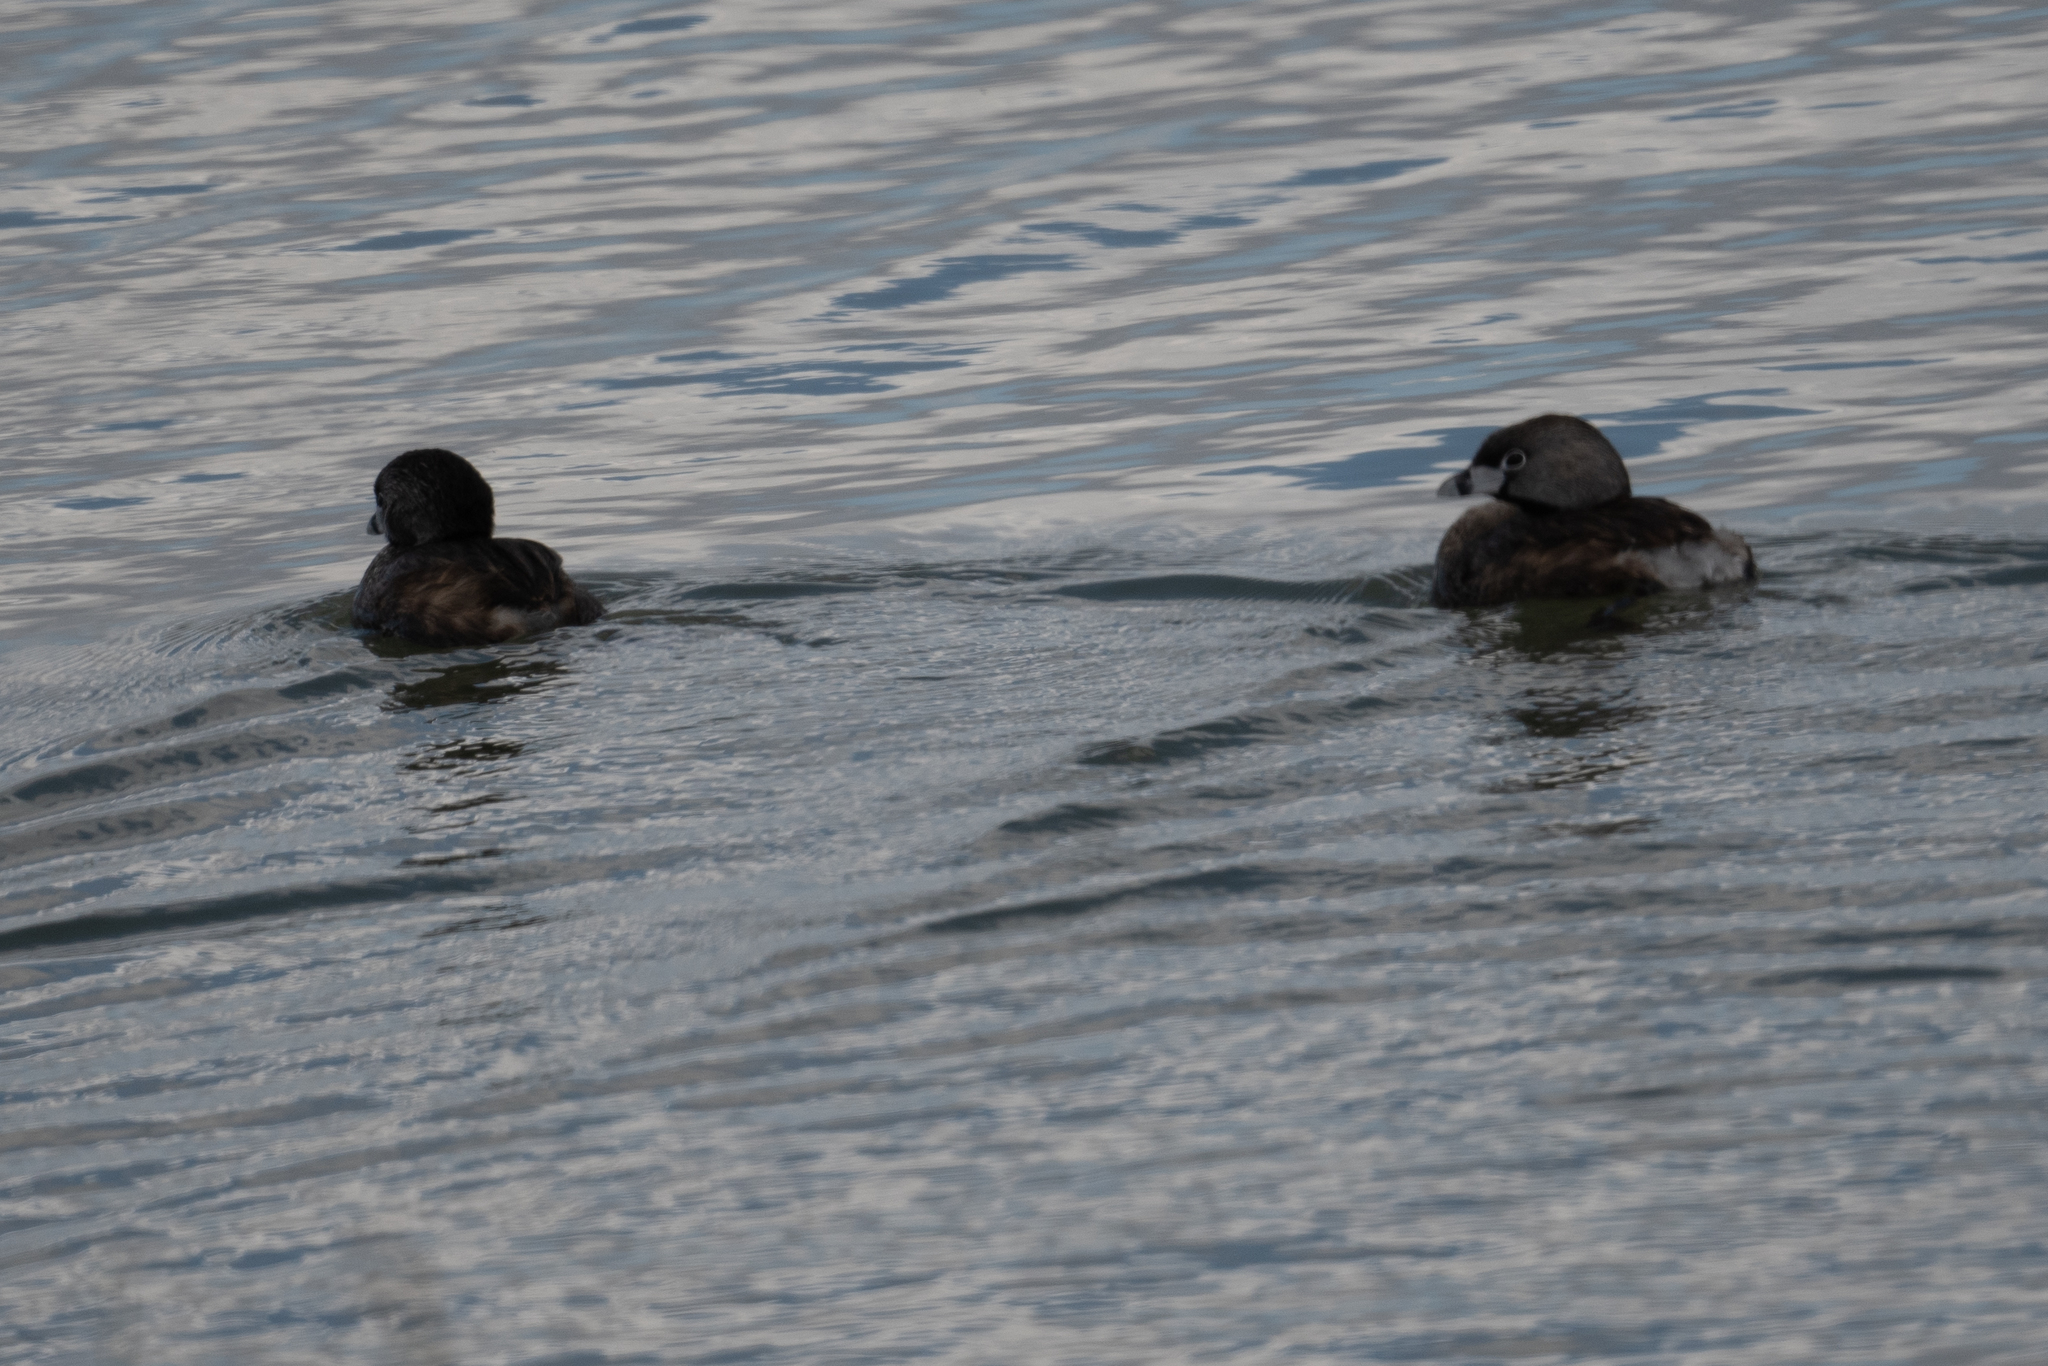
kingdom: Animalia
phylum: Chordata
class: Aves
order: Podicipediformes
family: Podicipedidae
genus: Podilymbus
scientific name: Podilymbus podiceps
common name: Pied-billed grebe
